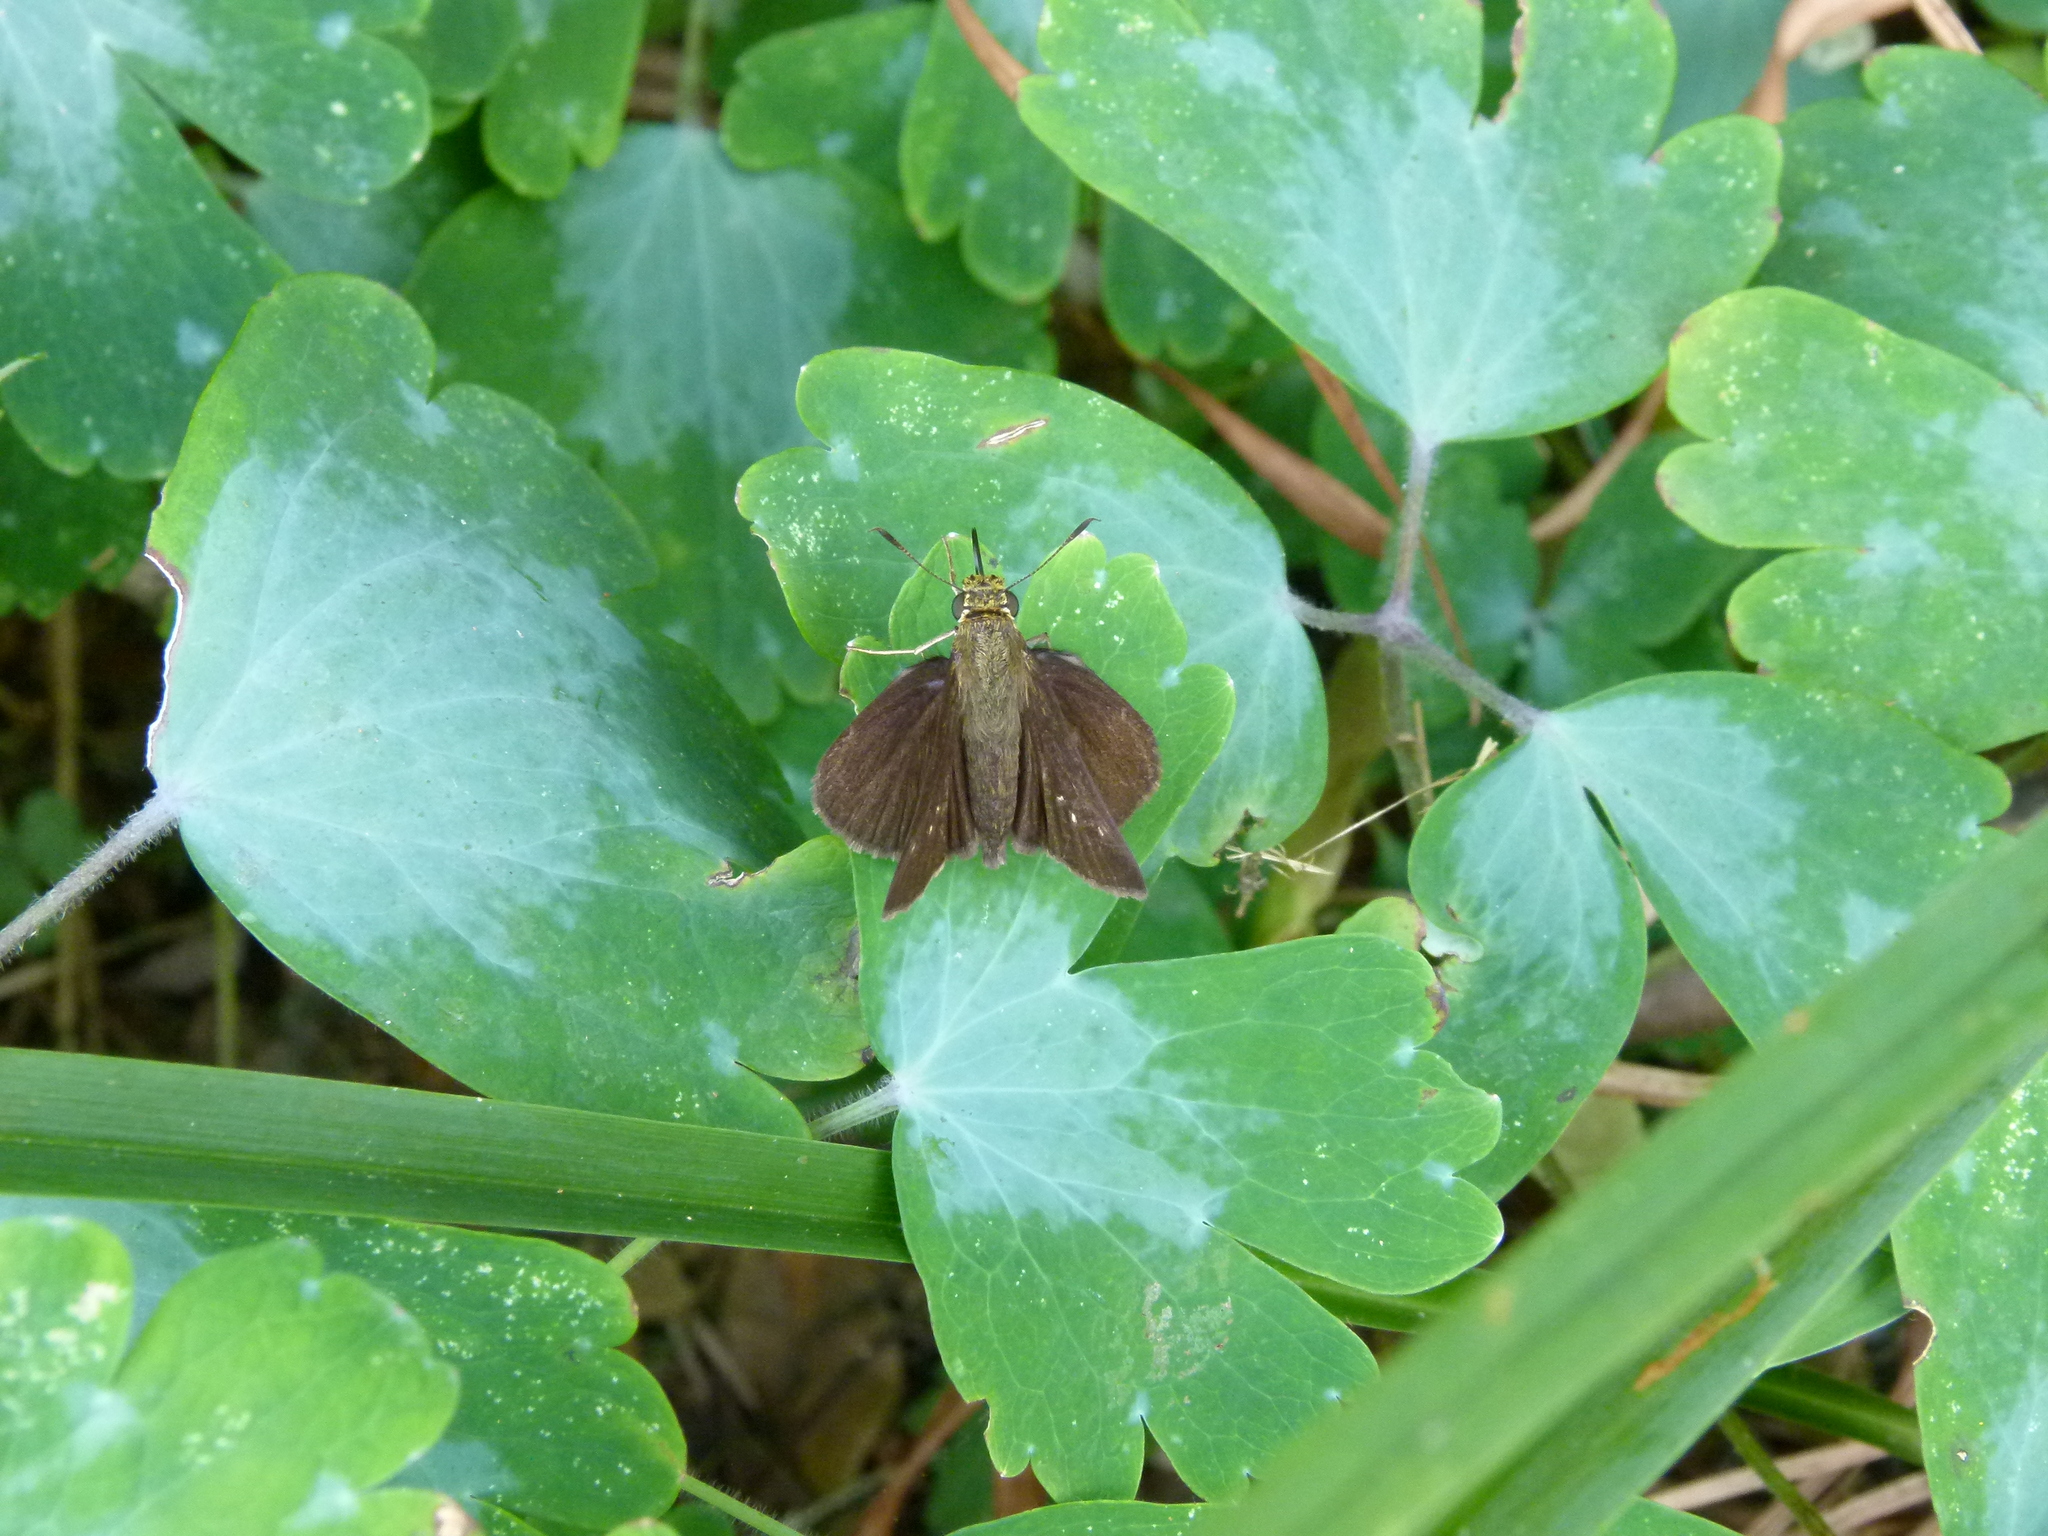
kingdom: Animalia
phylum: Arthropoda
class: Insecta
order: Lepidoptera
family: Hesperiidae
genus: Euphyes
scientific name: Euphyes vestris
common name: Dun skipper
